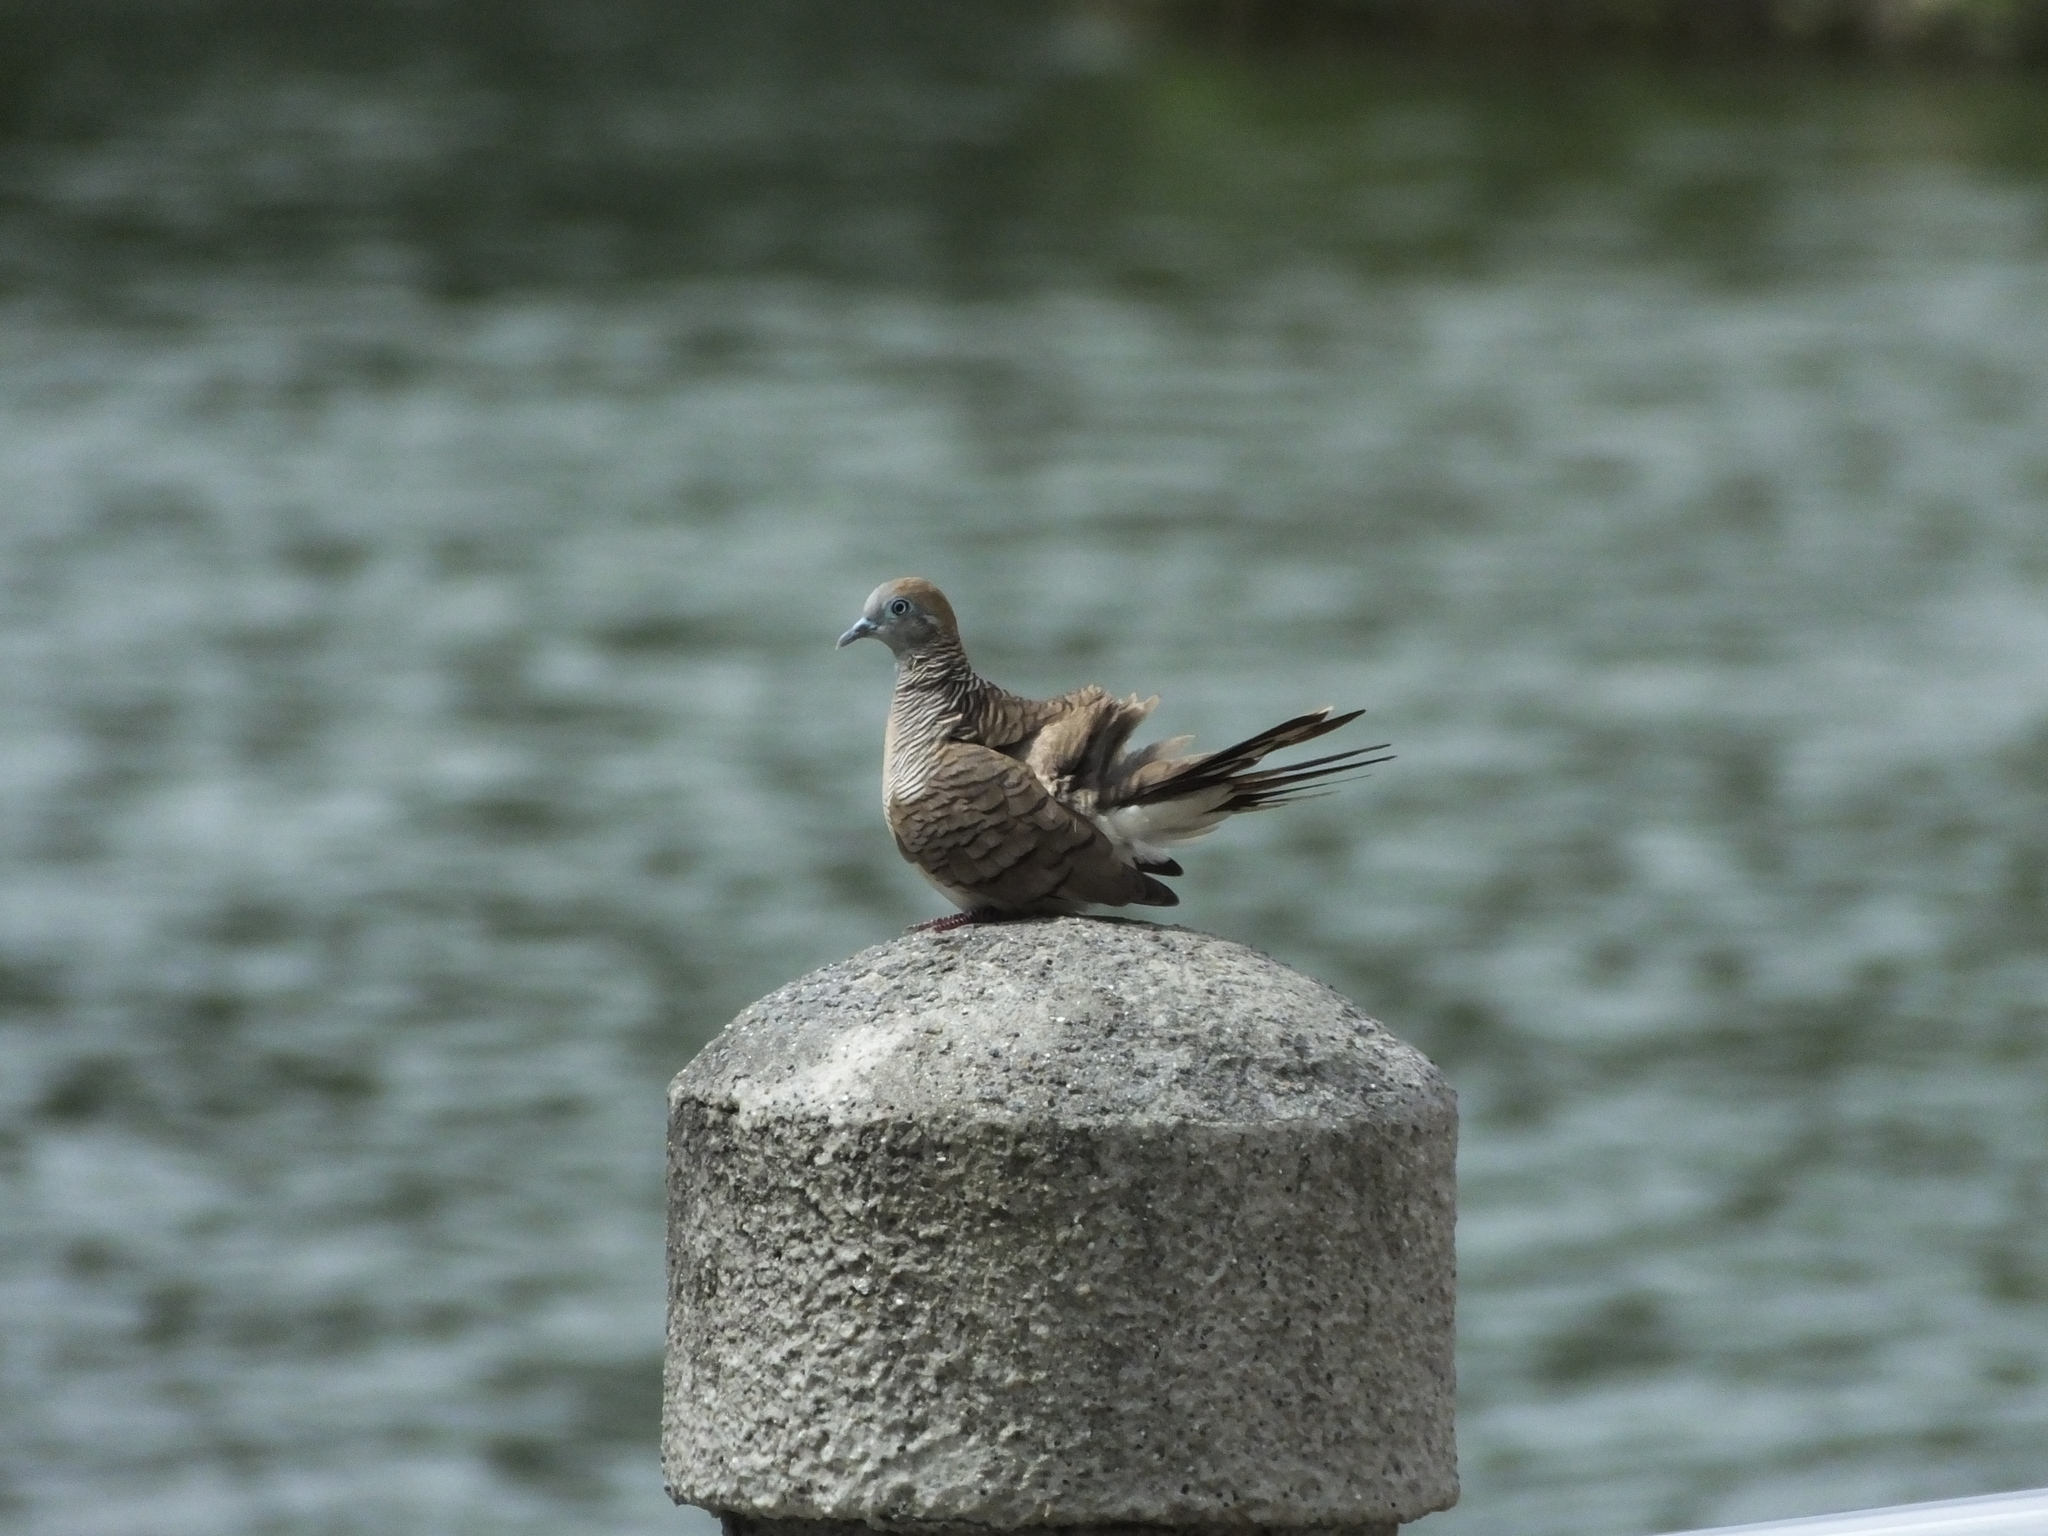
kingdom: Animalia
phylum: Chordata
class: Aves
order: Columbiformes
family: Columbidae
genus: Geopelia
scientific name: Geopelia striata
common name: Zebra dove
